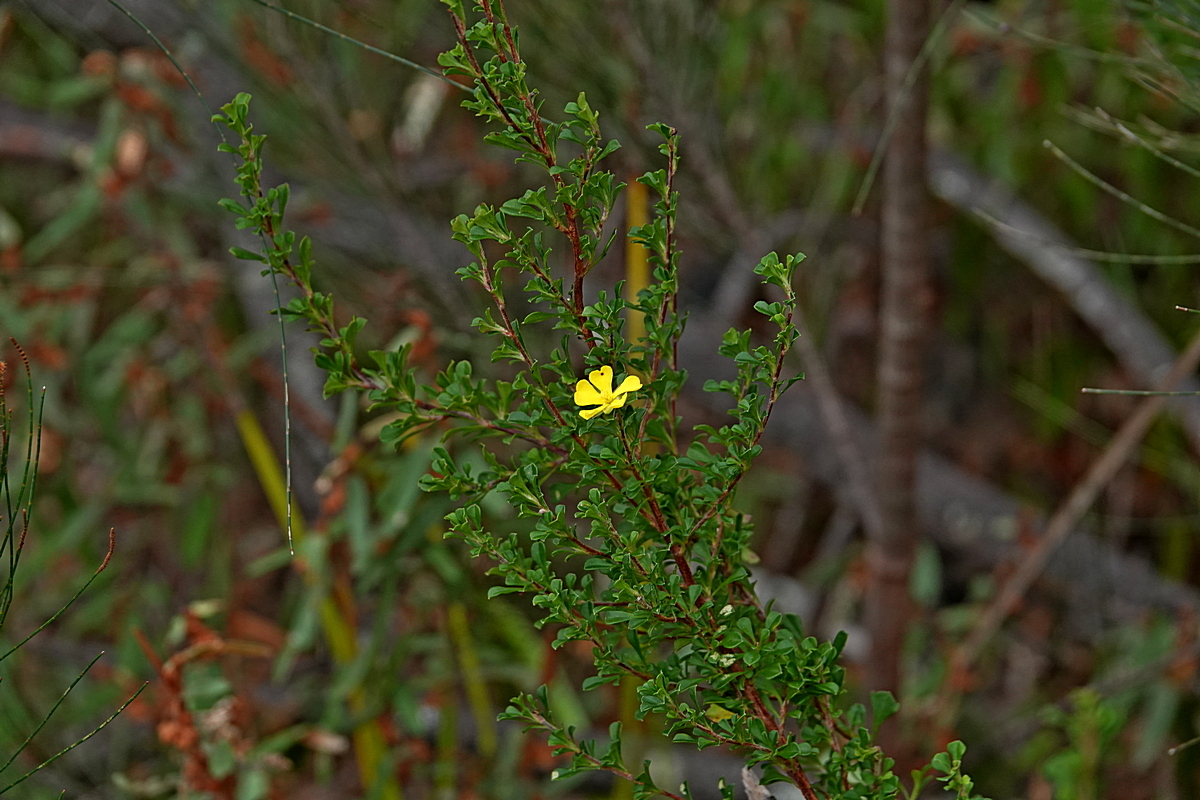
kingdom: Plantae
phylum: Tracheophyta
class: Magnoliopsida
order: Dilleniales
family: Dilleniaceae
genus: Hibbertia
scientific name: Hibbertia monogyna
